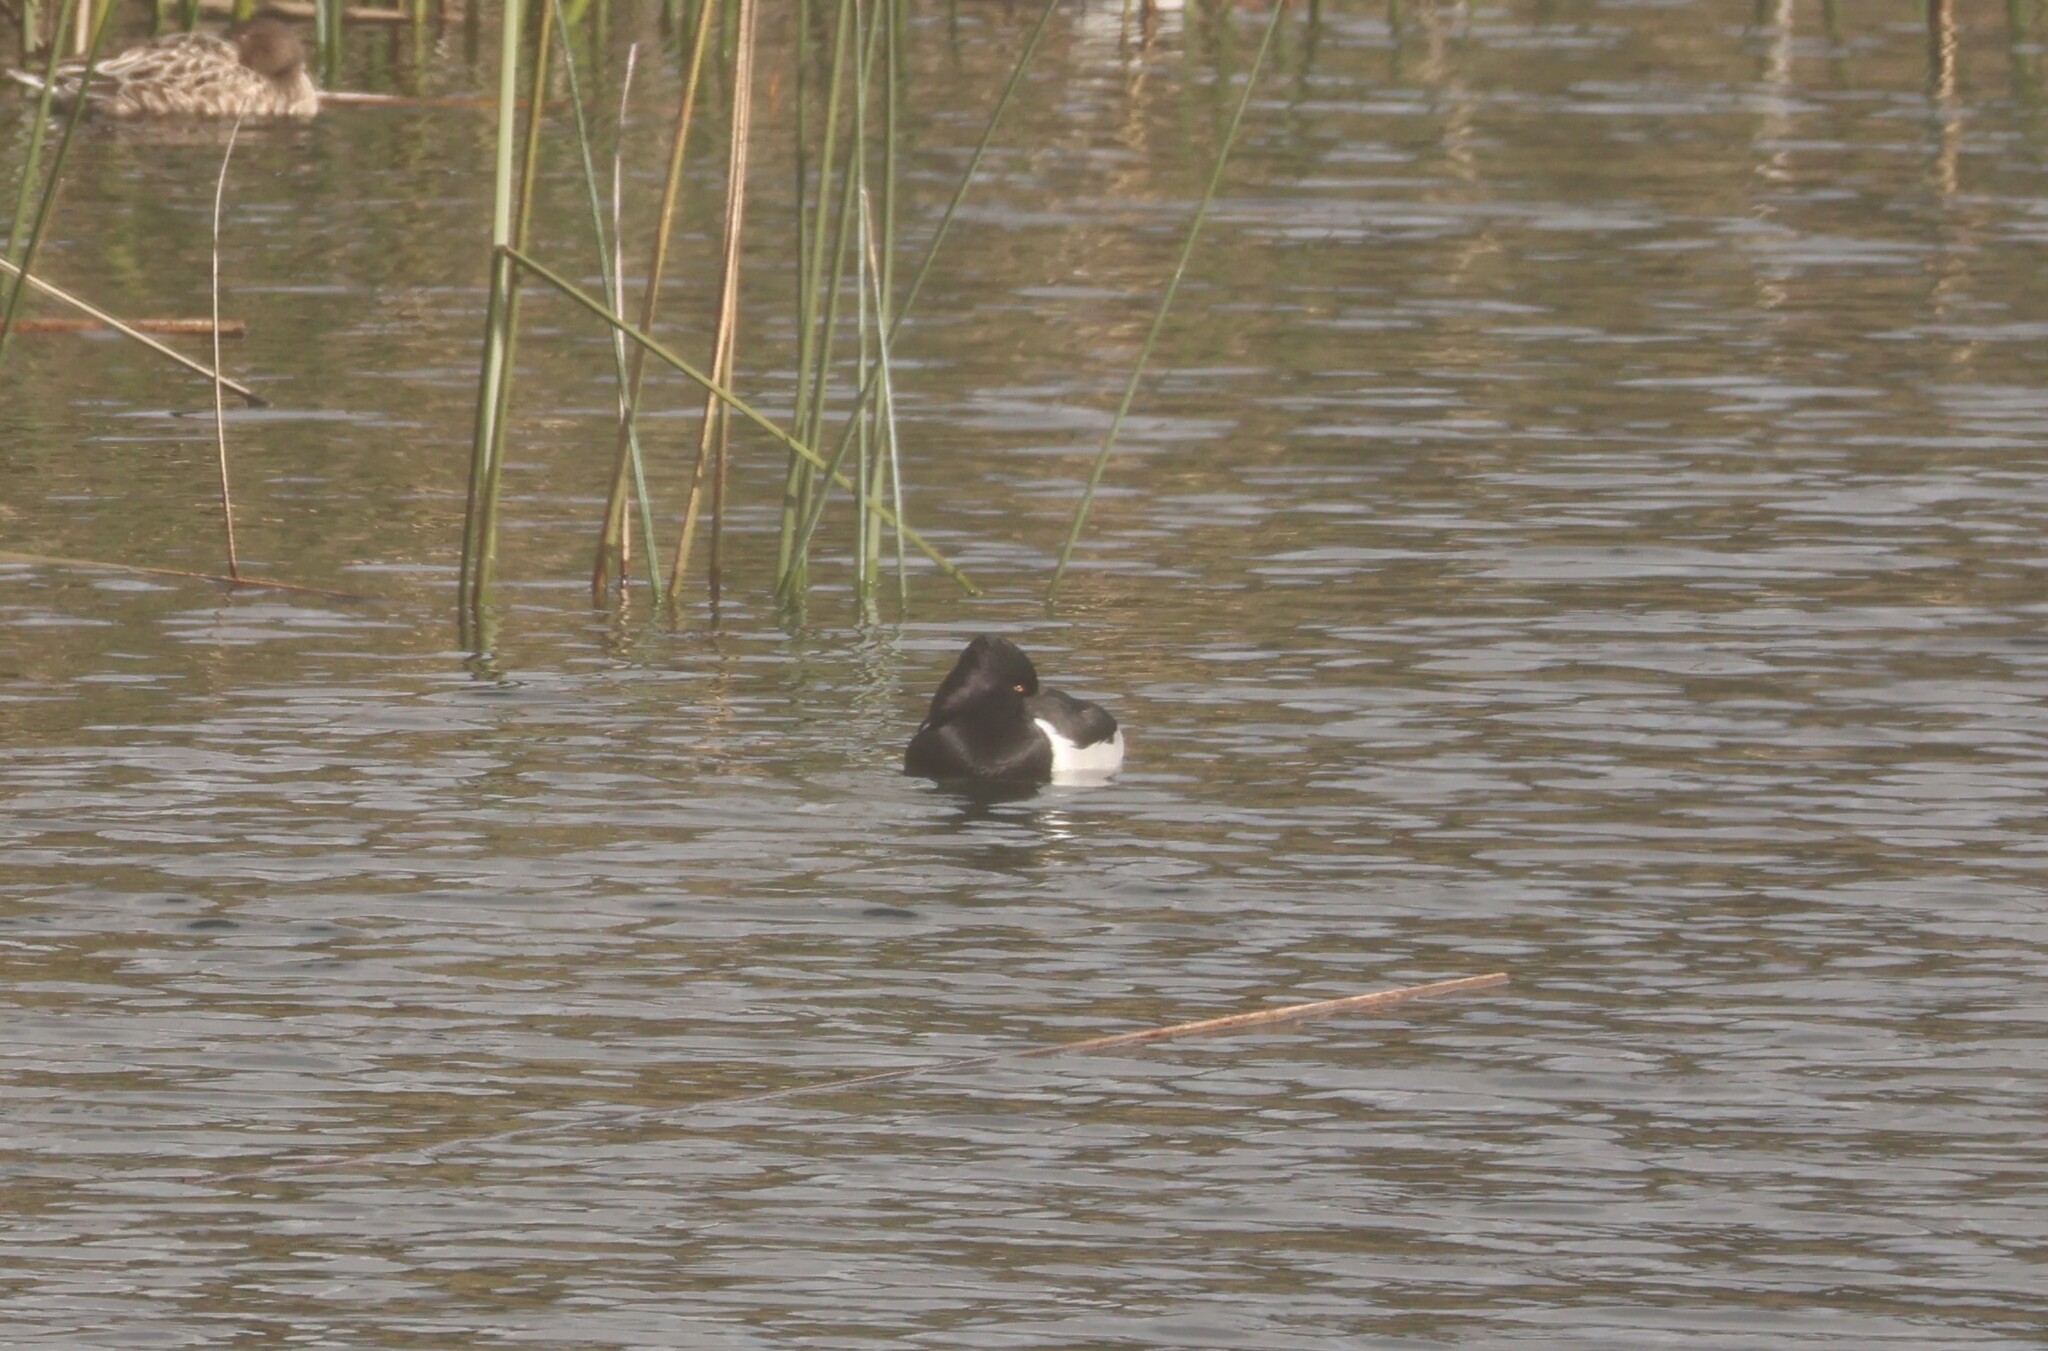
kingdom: Animalia
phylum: Chordata
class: Aves
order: Anseriformes
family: Anatidae
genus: Aythya
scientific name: Aythya collaris
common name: Ring-necked duck
